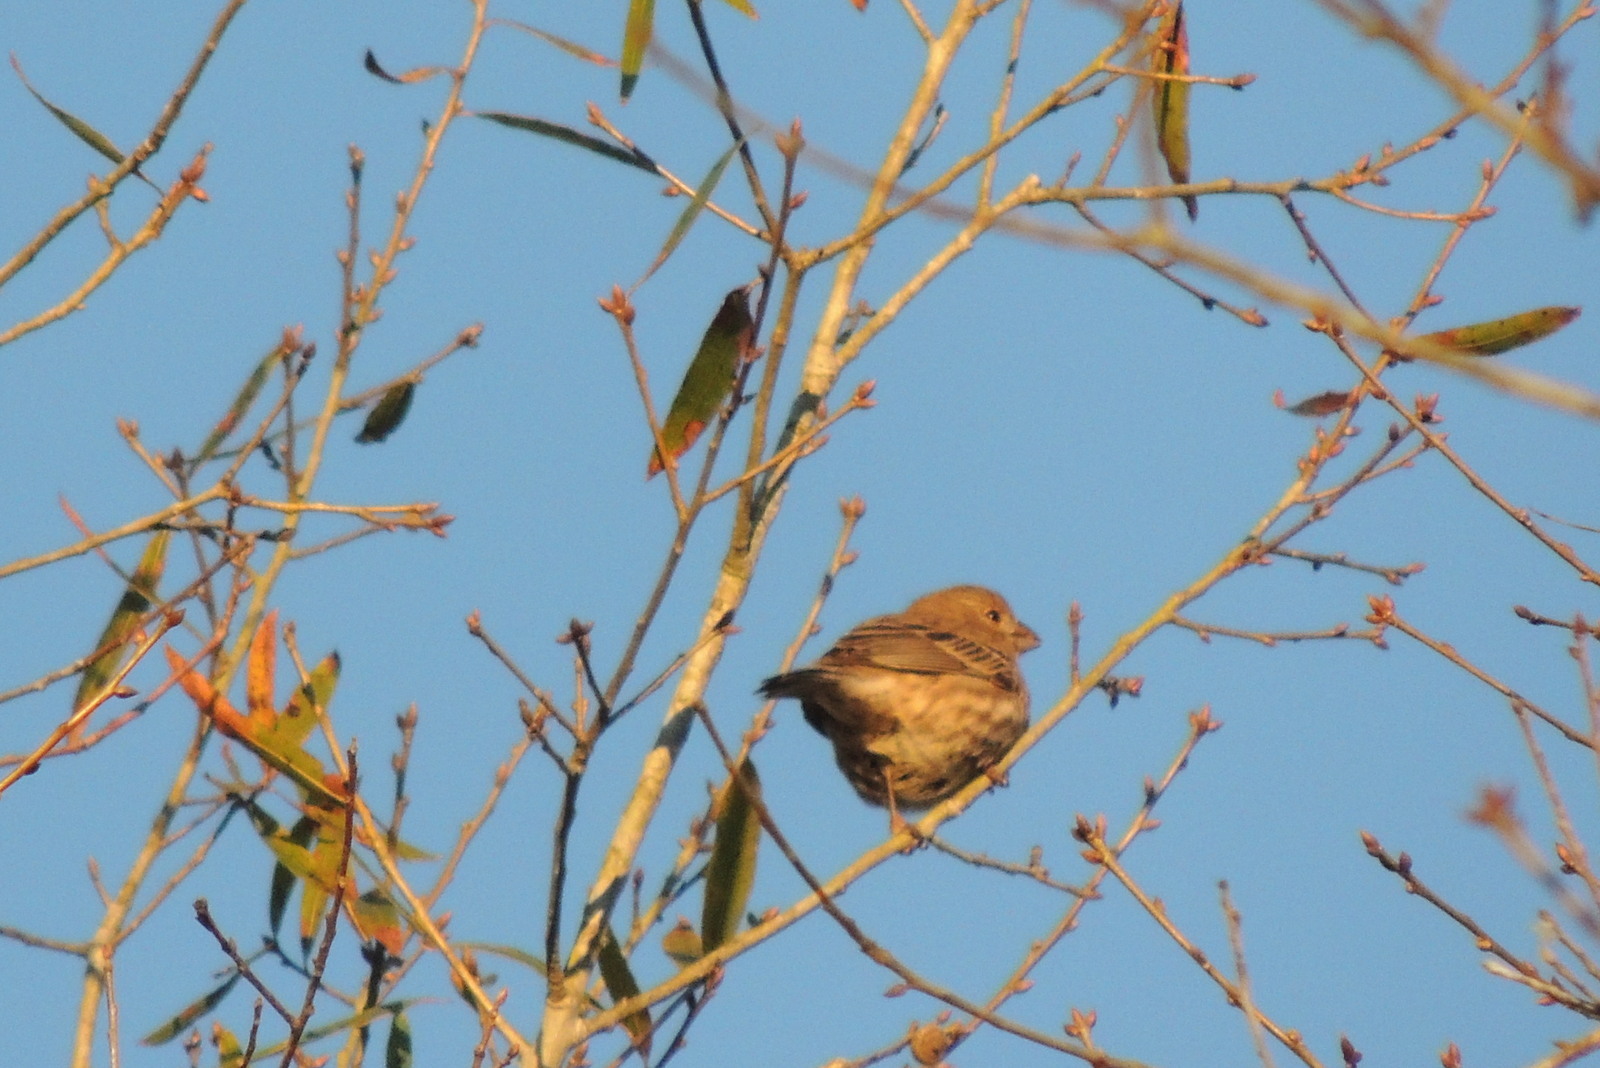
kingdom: Animalia
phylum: Chordata
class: Aves
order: Passeriformes
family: Fringillidae
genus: Haemorhous
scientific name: Haemorhous mexicanus
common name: House finch
